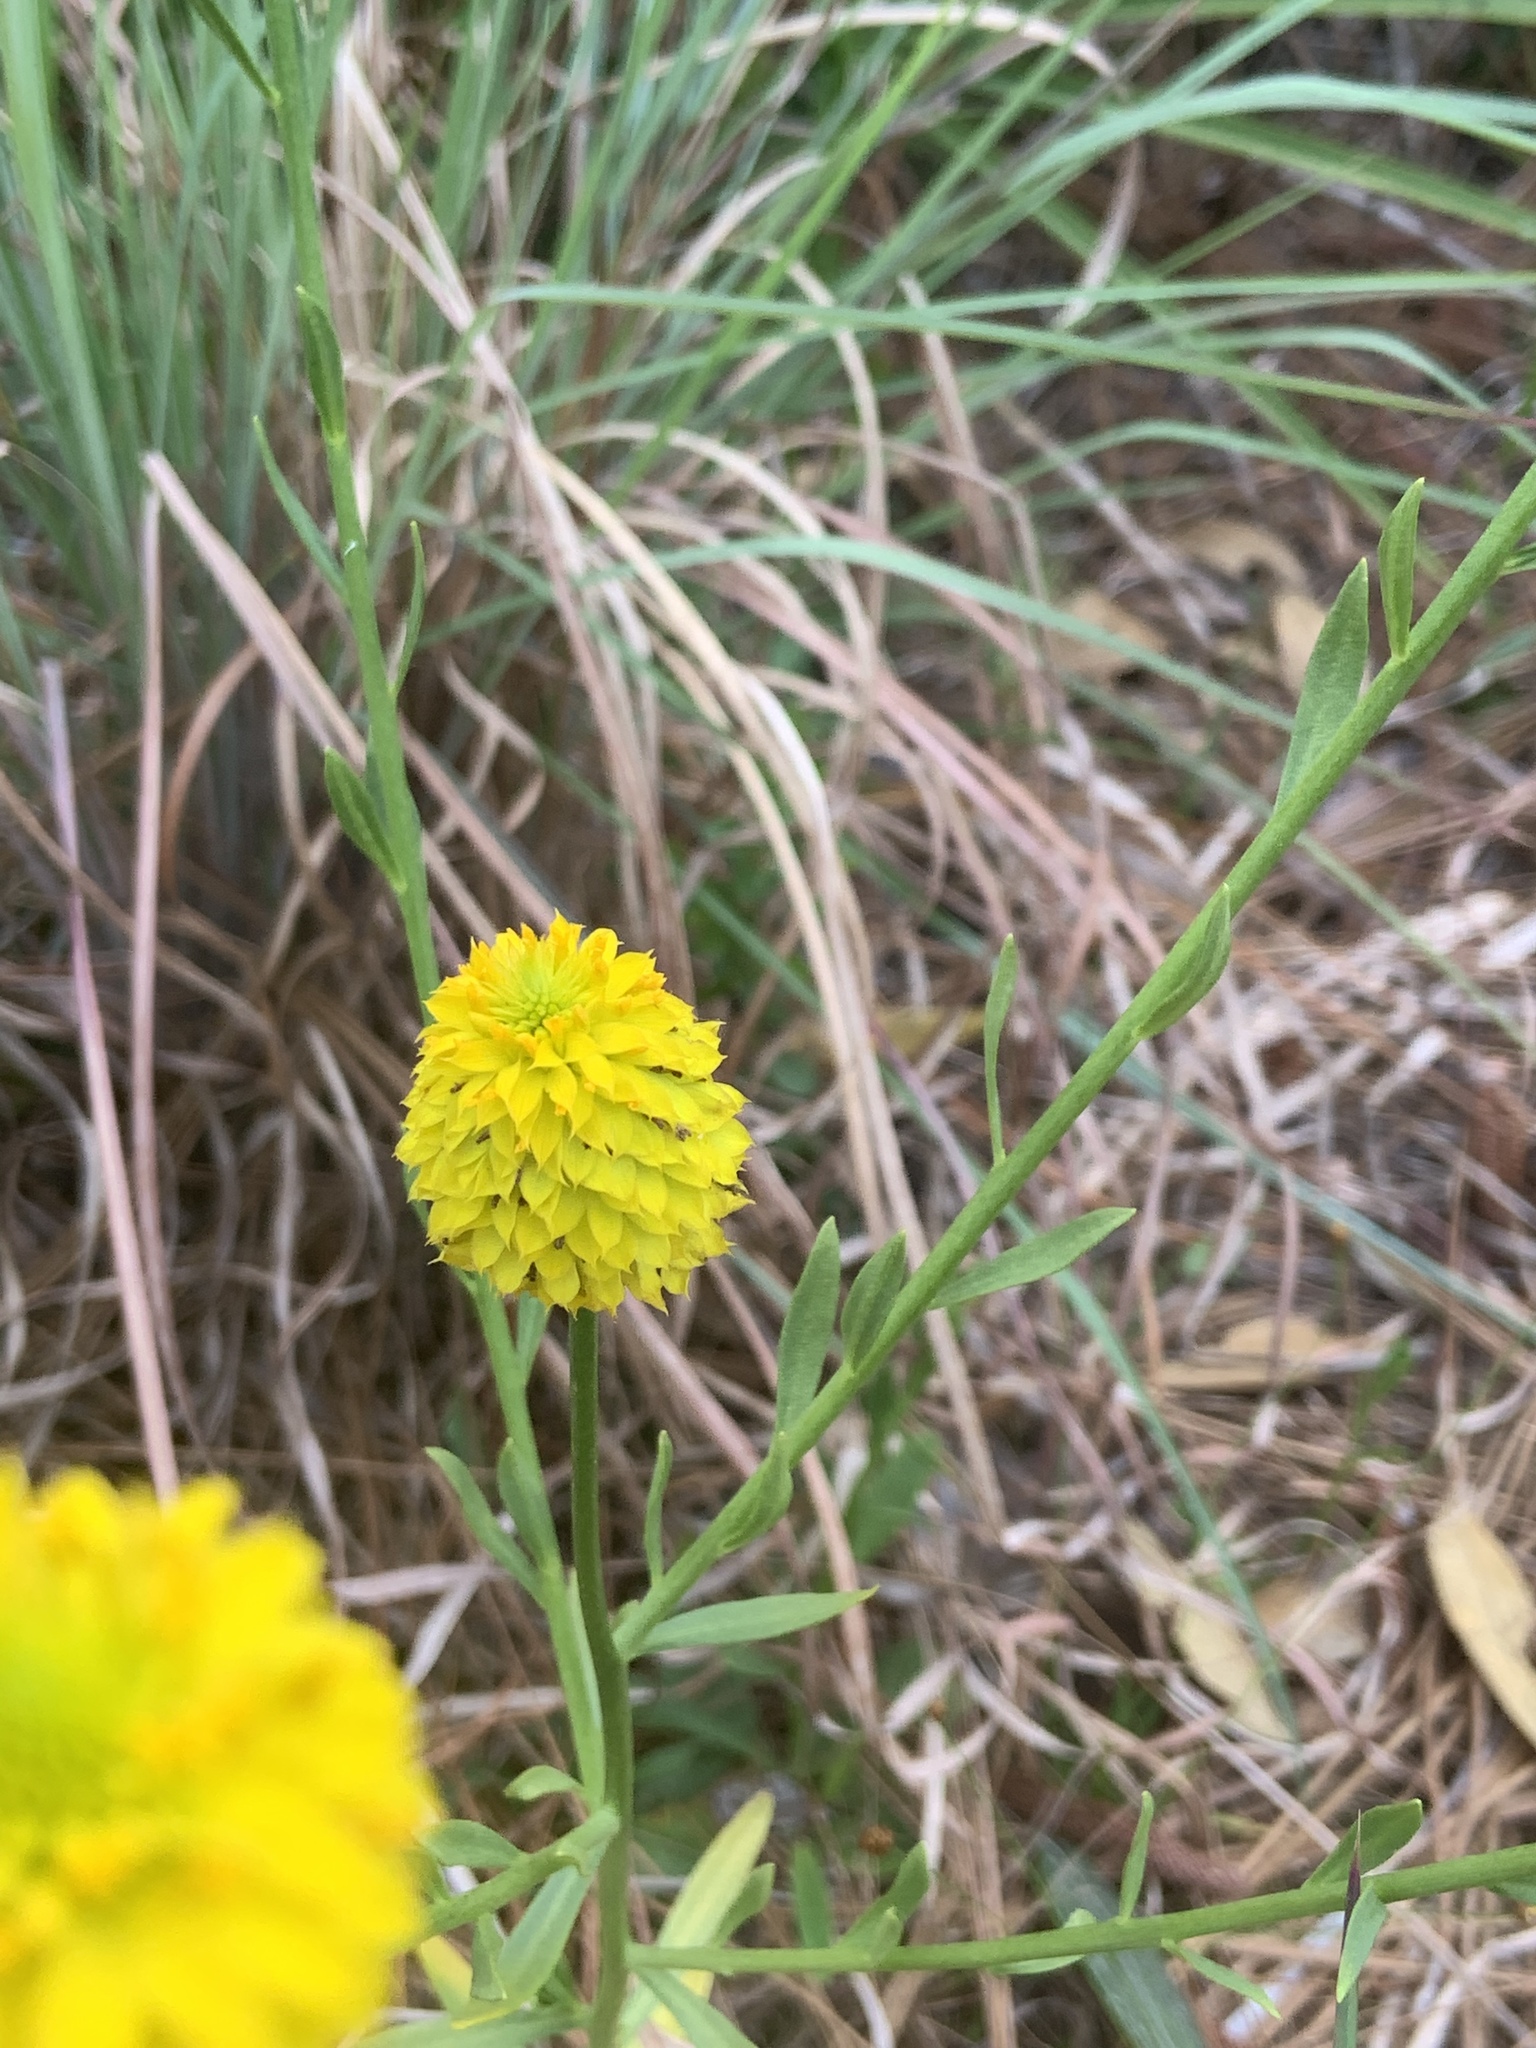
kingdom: Plantae
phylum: Tracheophyta
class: Magnoliopsida
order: Fabales
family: Polygalaceae
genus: Polygala
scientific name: Polygala rugelii
